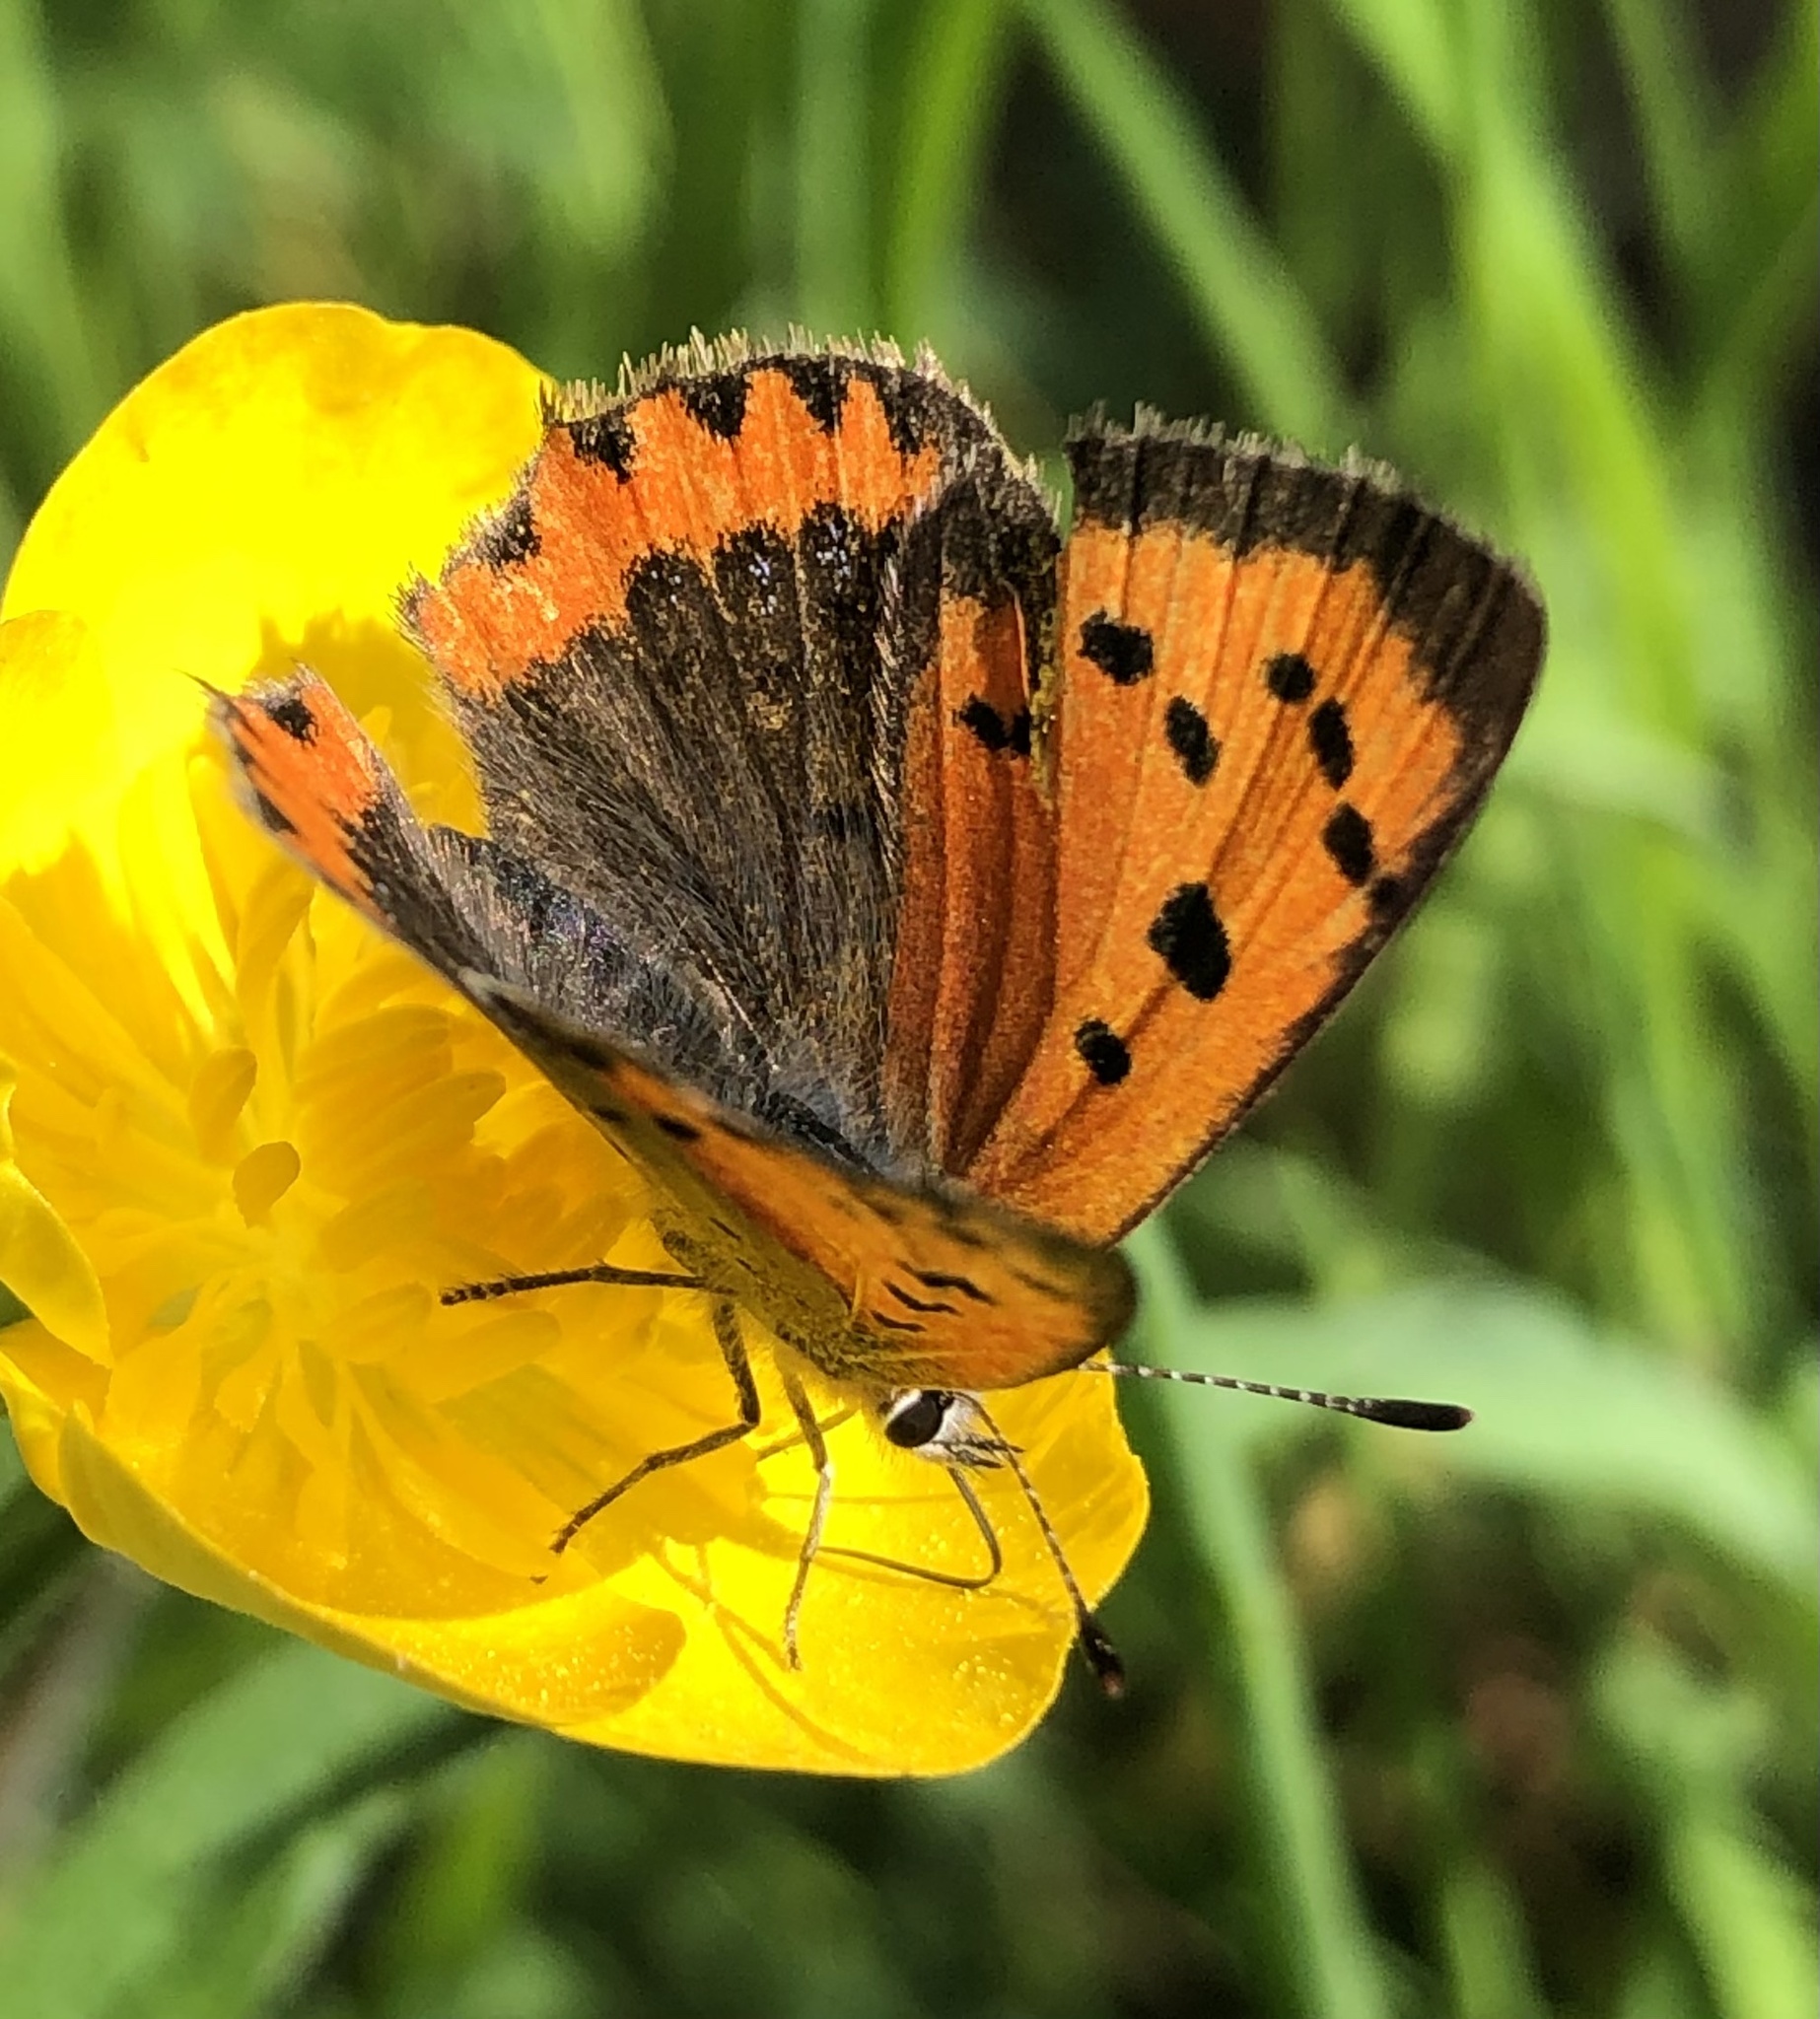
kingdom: Animalia
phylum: Arthropoda
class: Insecta
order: Lepidoptera
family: Lycaenidae
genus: Lycaena
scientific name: Lycaena phlaeas
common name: Small copper
